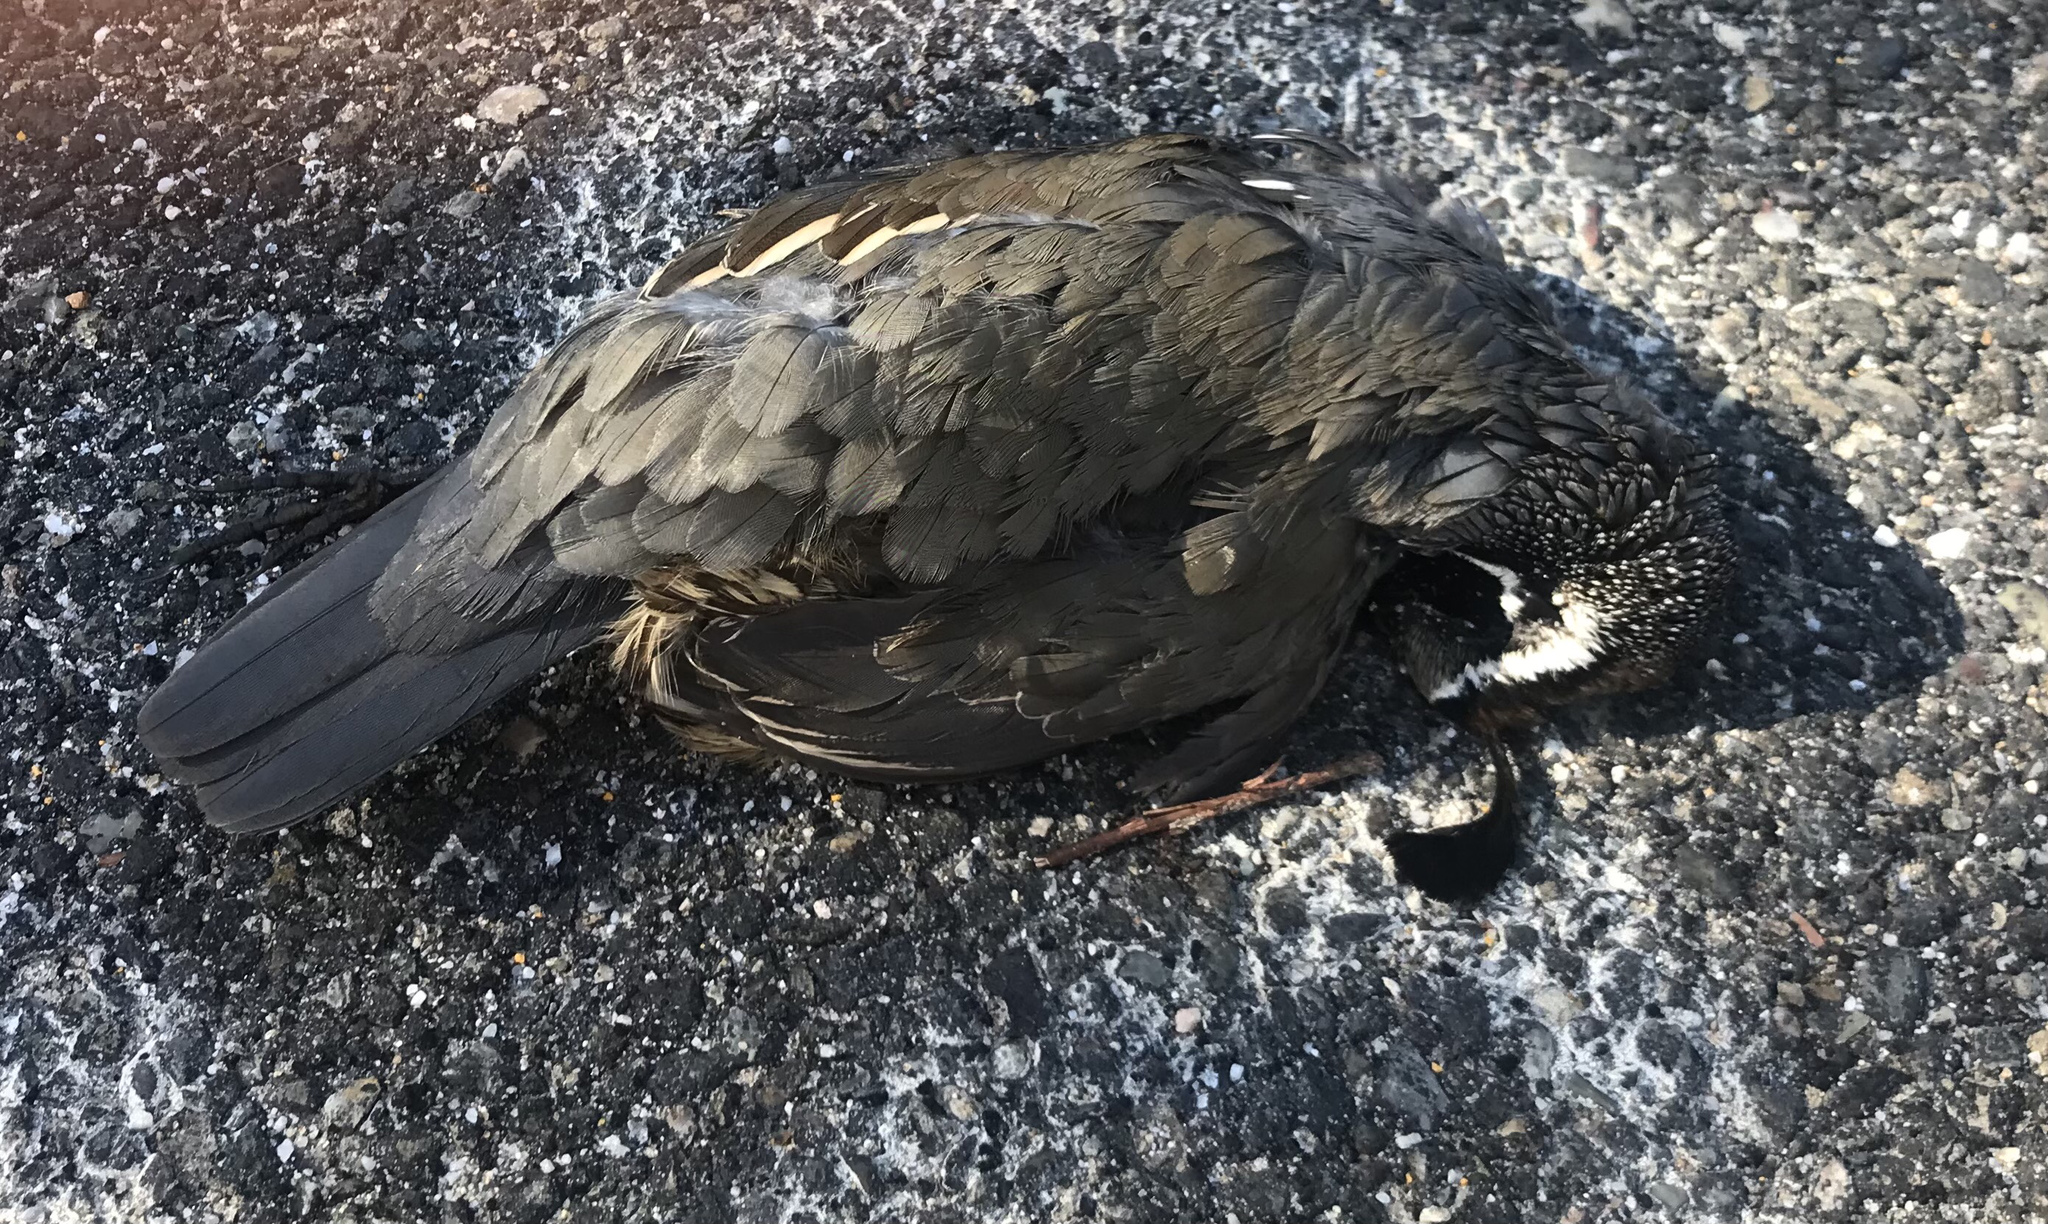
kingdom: Animalia
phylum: Chordata
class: Aves
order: Galliformes
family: Odontophoridae
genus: Callipepla
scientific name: Callipepla californica
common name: California quail
